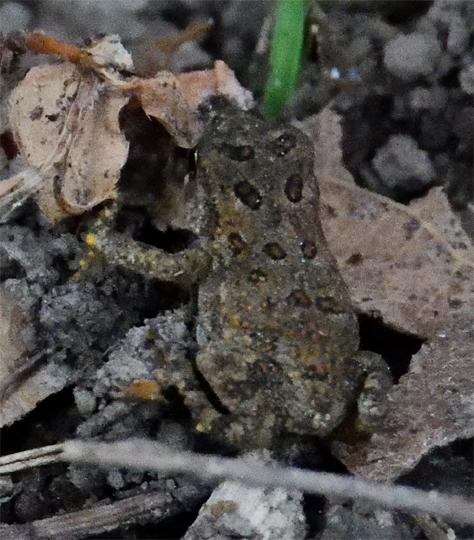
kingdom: Animalia
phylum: Chordata
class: Amphibia
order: Anura
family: Bufonidae
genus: Anaxyrus
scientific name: Anaxyrus americanus
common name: American toad
